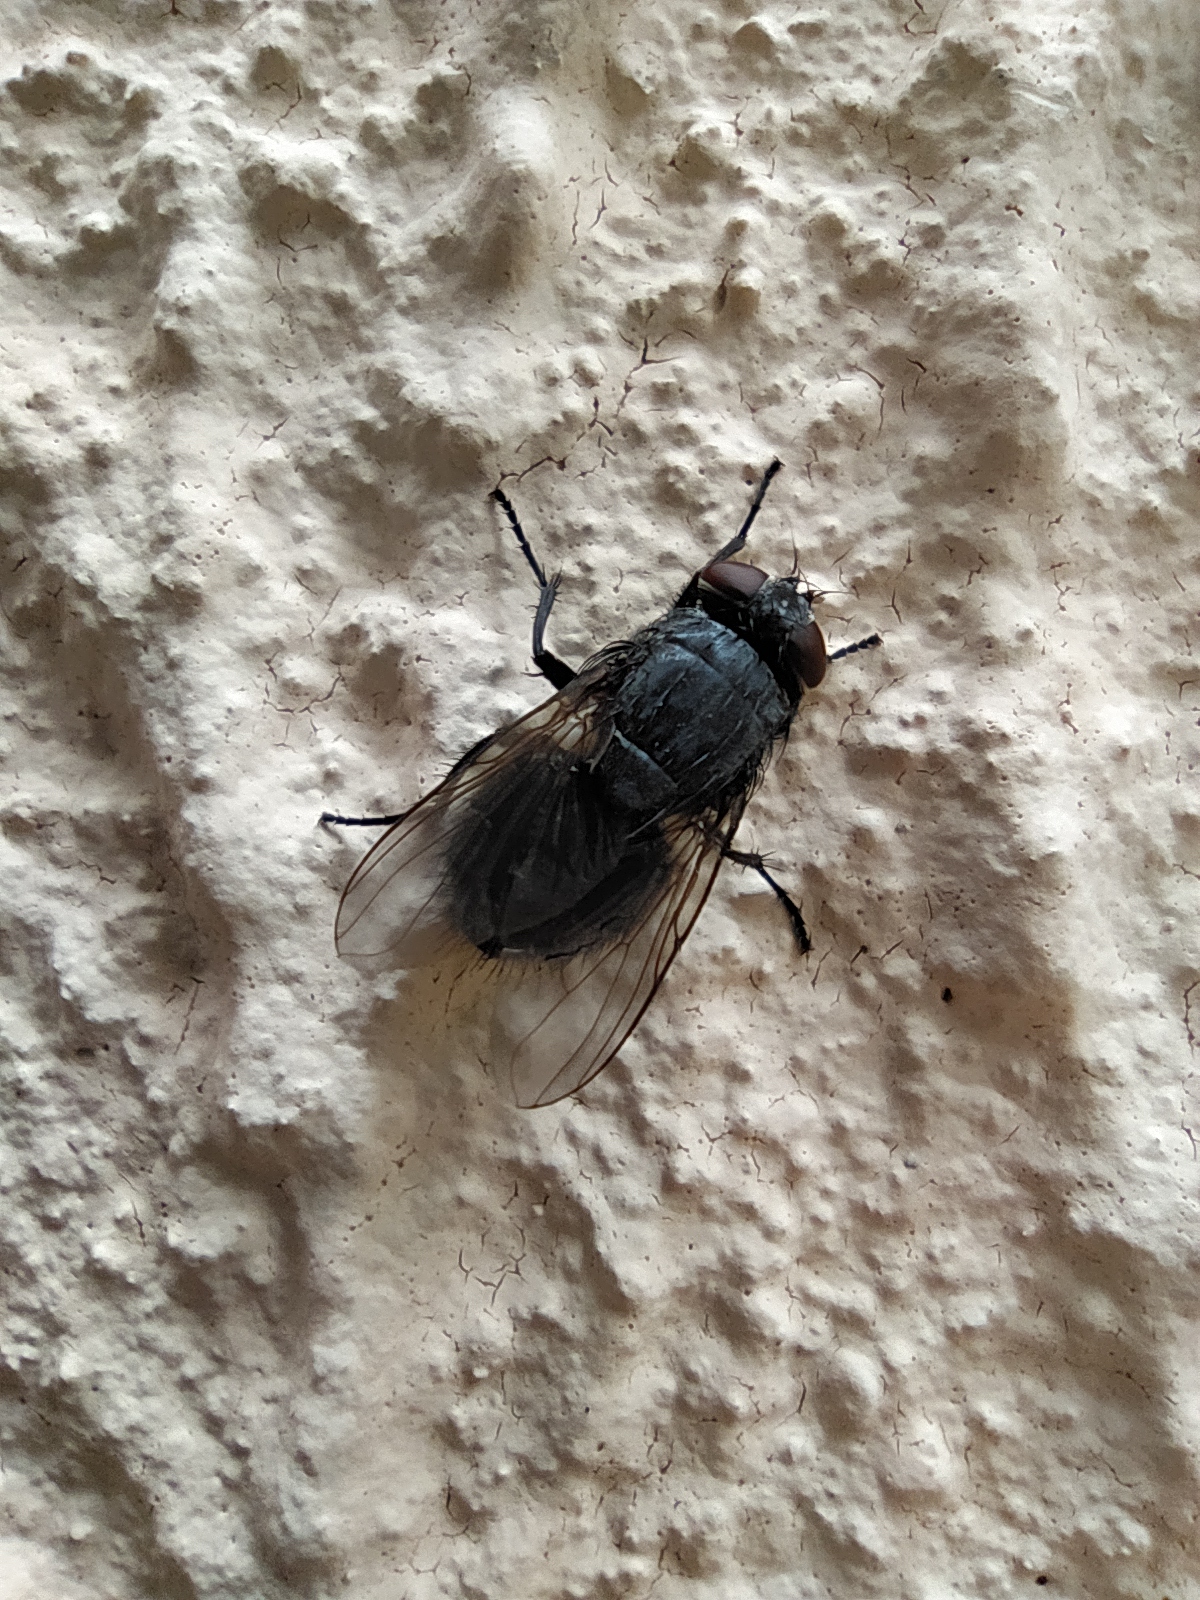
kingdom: Animalia
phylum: Arthropoda
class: Insecta
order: Diptera
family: Muscidae
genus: Muscina
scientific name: Muscina pascuorum
